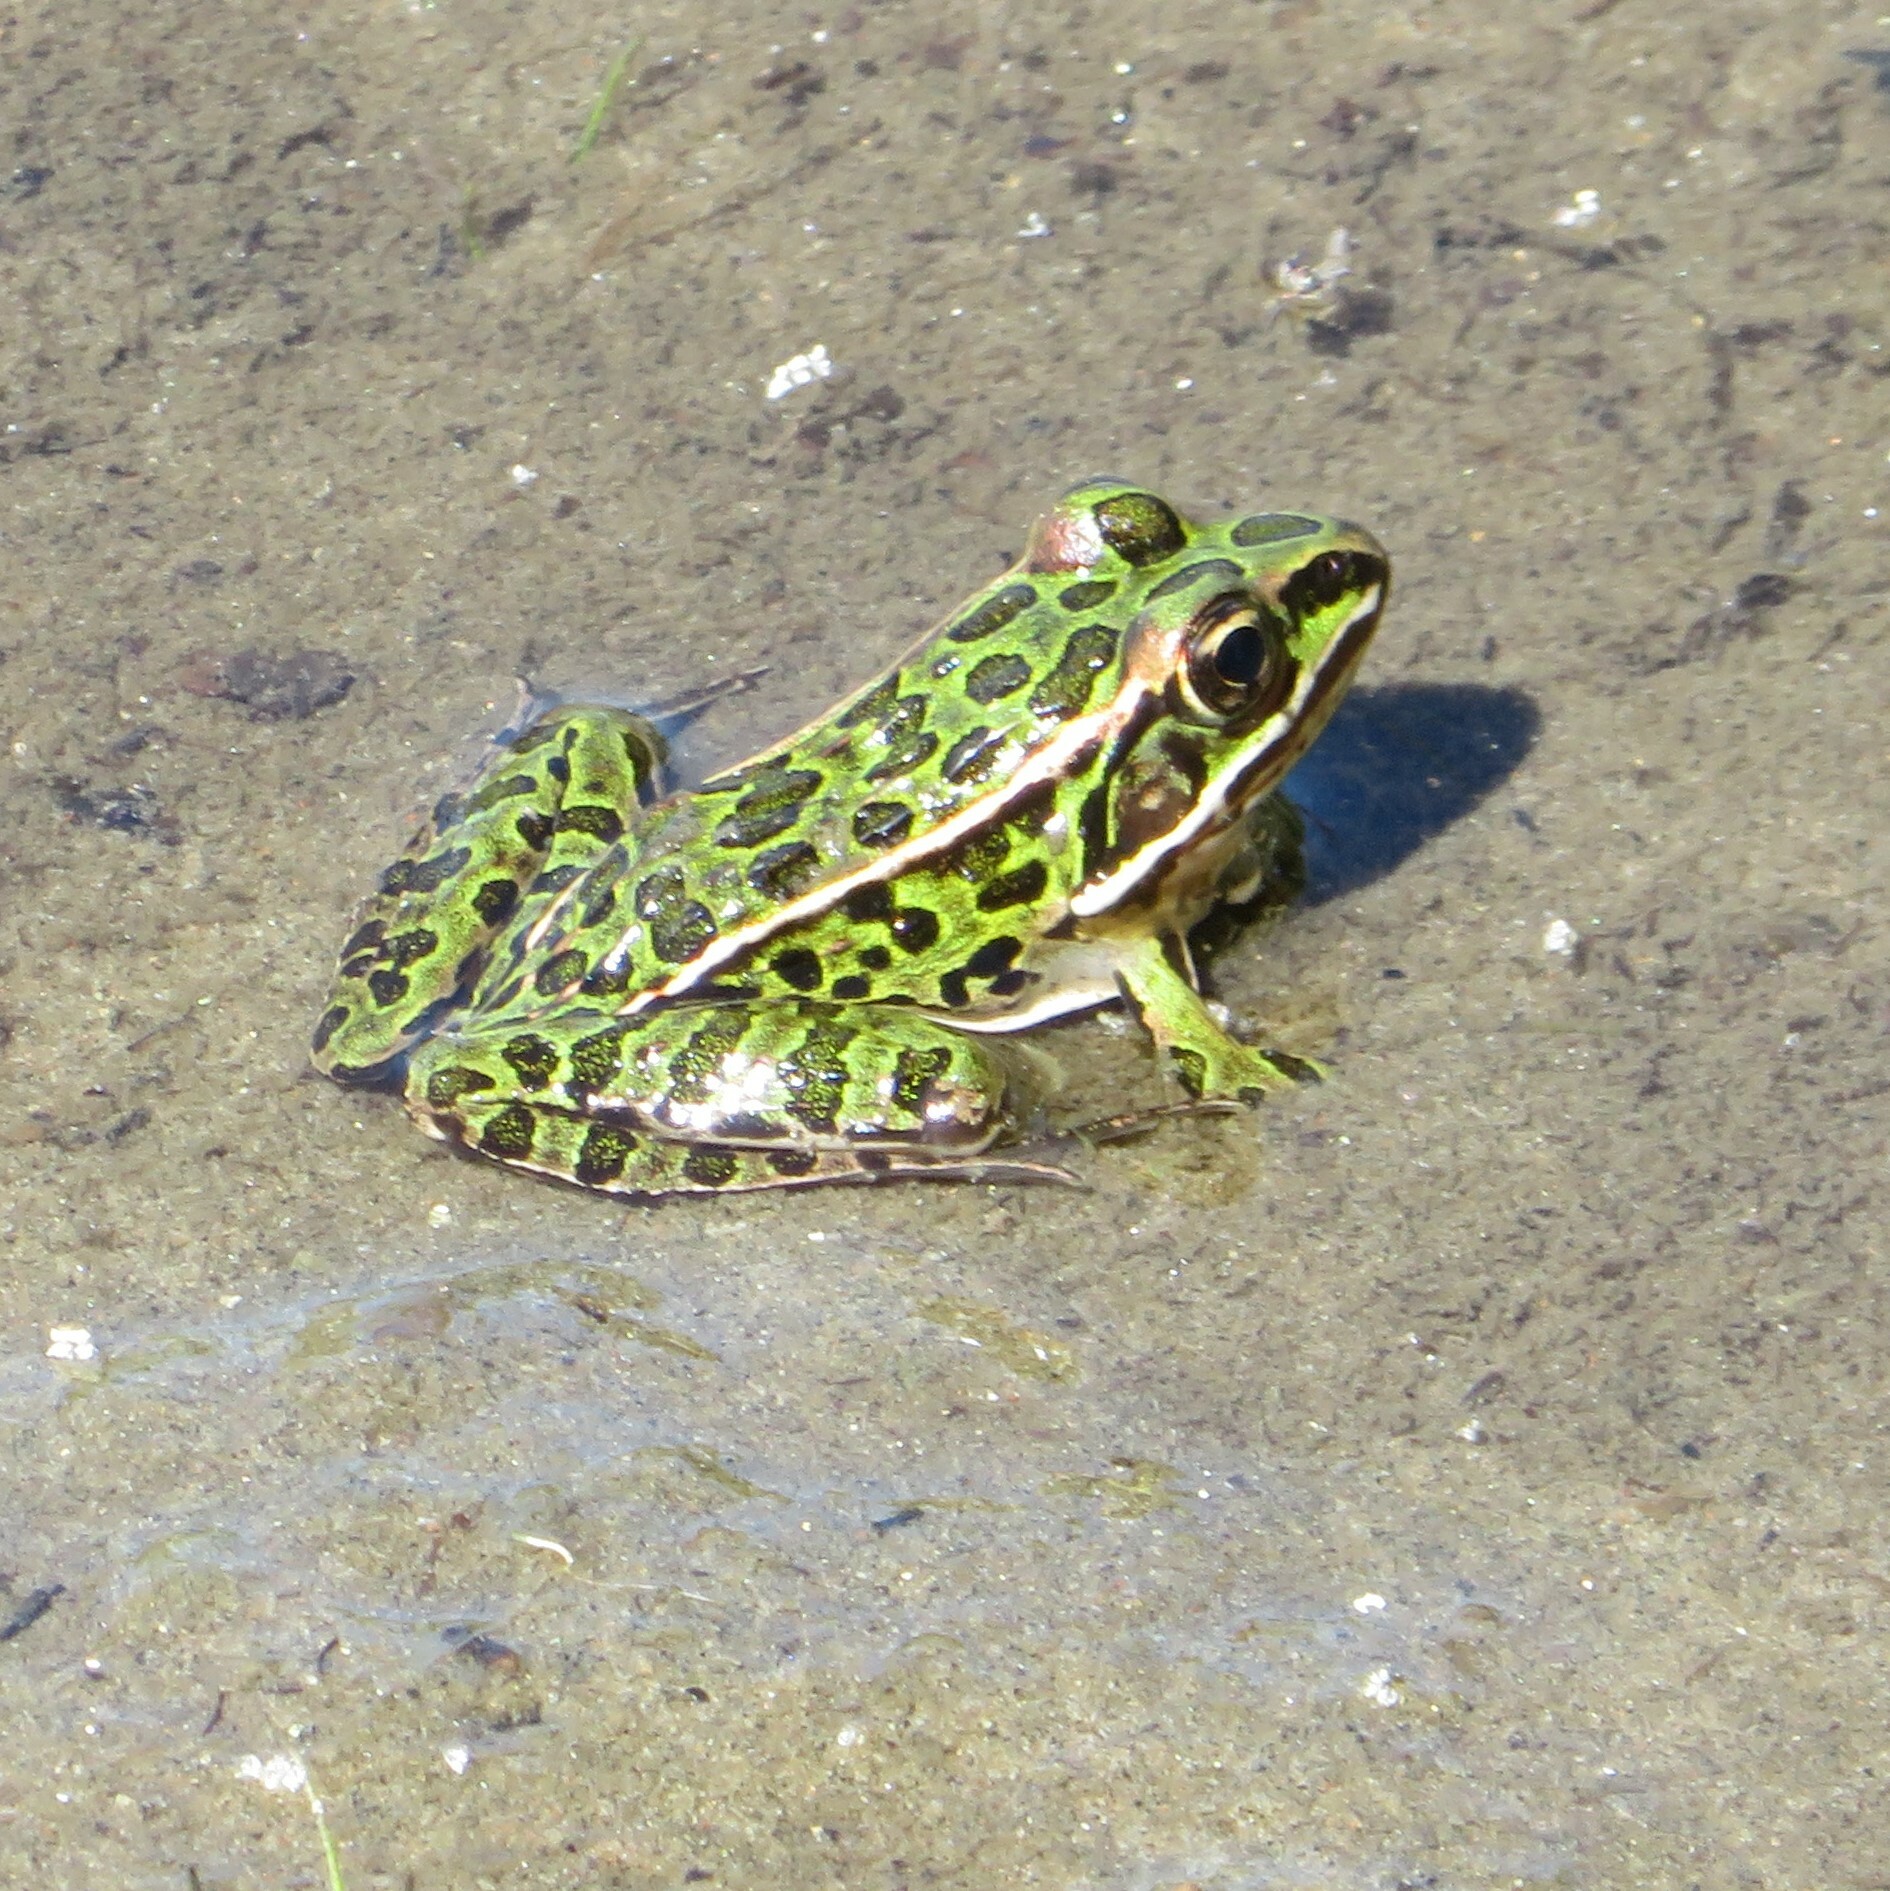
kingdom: Animalia
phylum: Chordata
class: Amphibia
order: Anura
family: Ranidae
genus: Lithobates
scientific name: Lithobates pipiens
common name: Northern leopard frog
